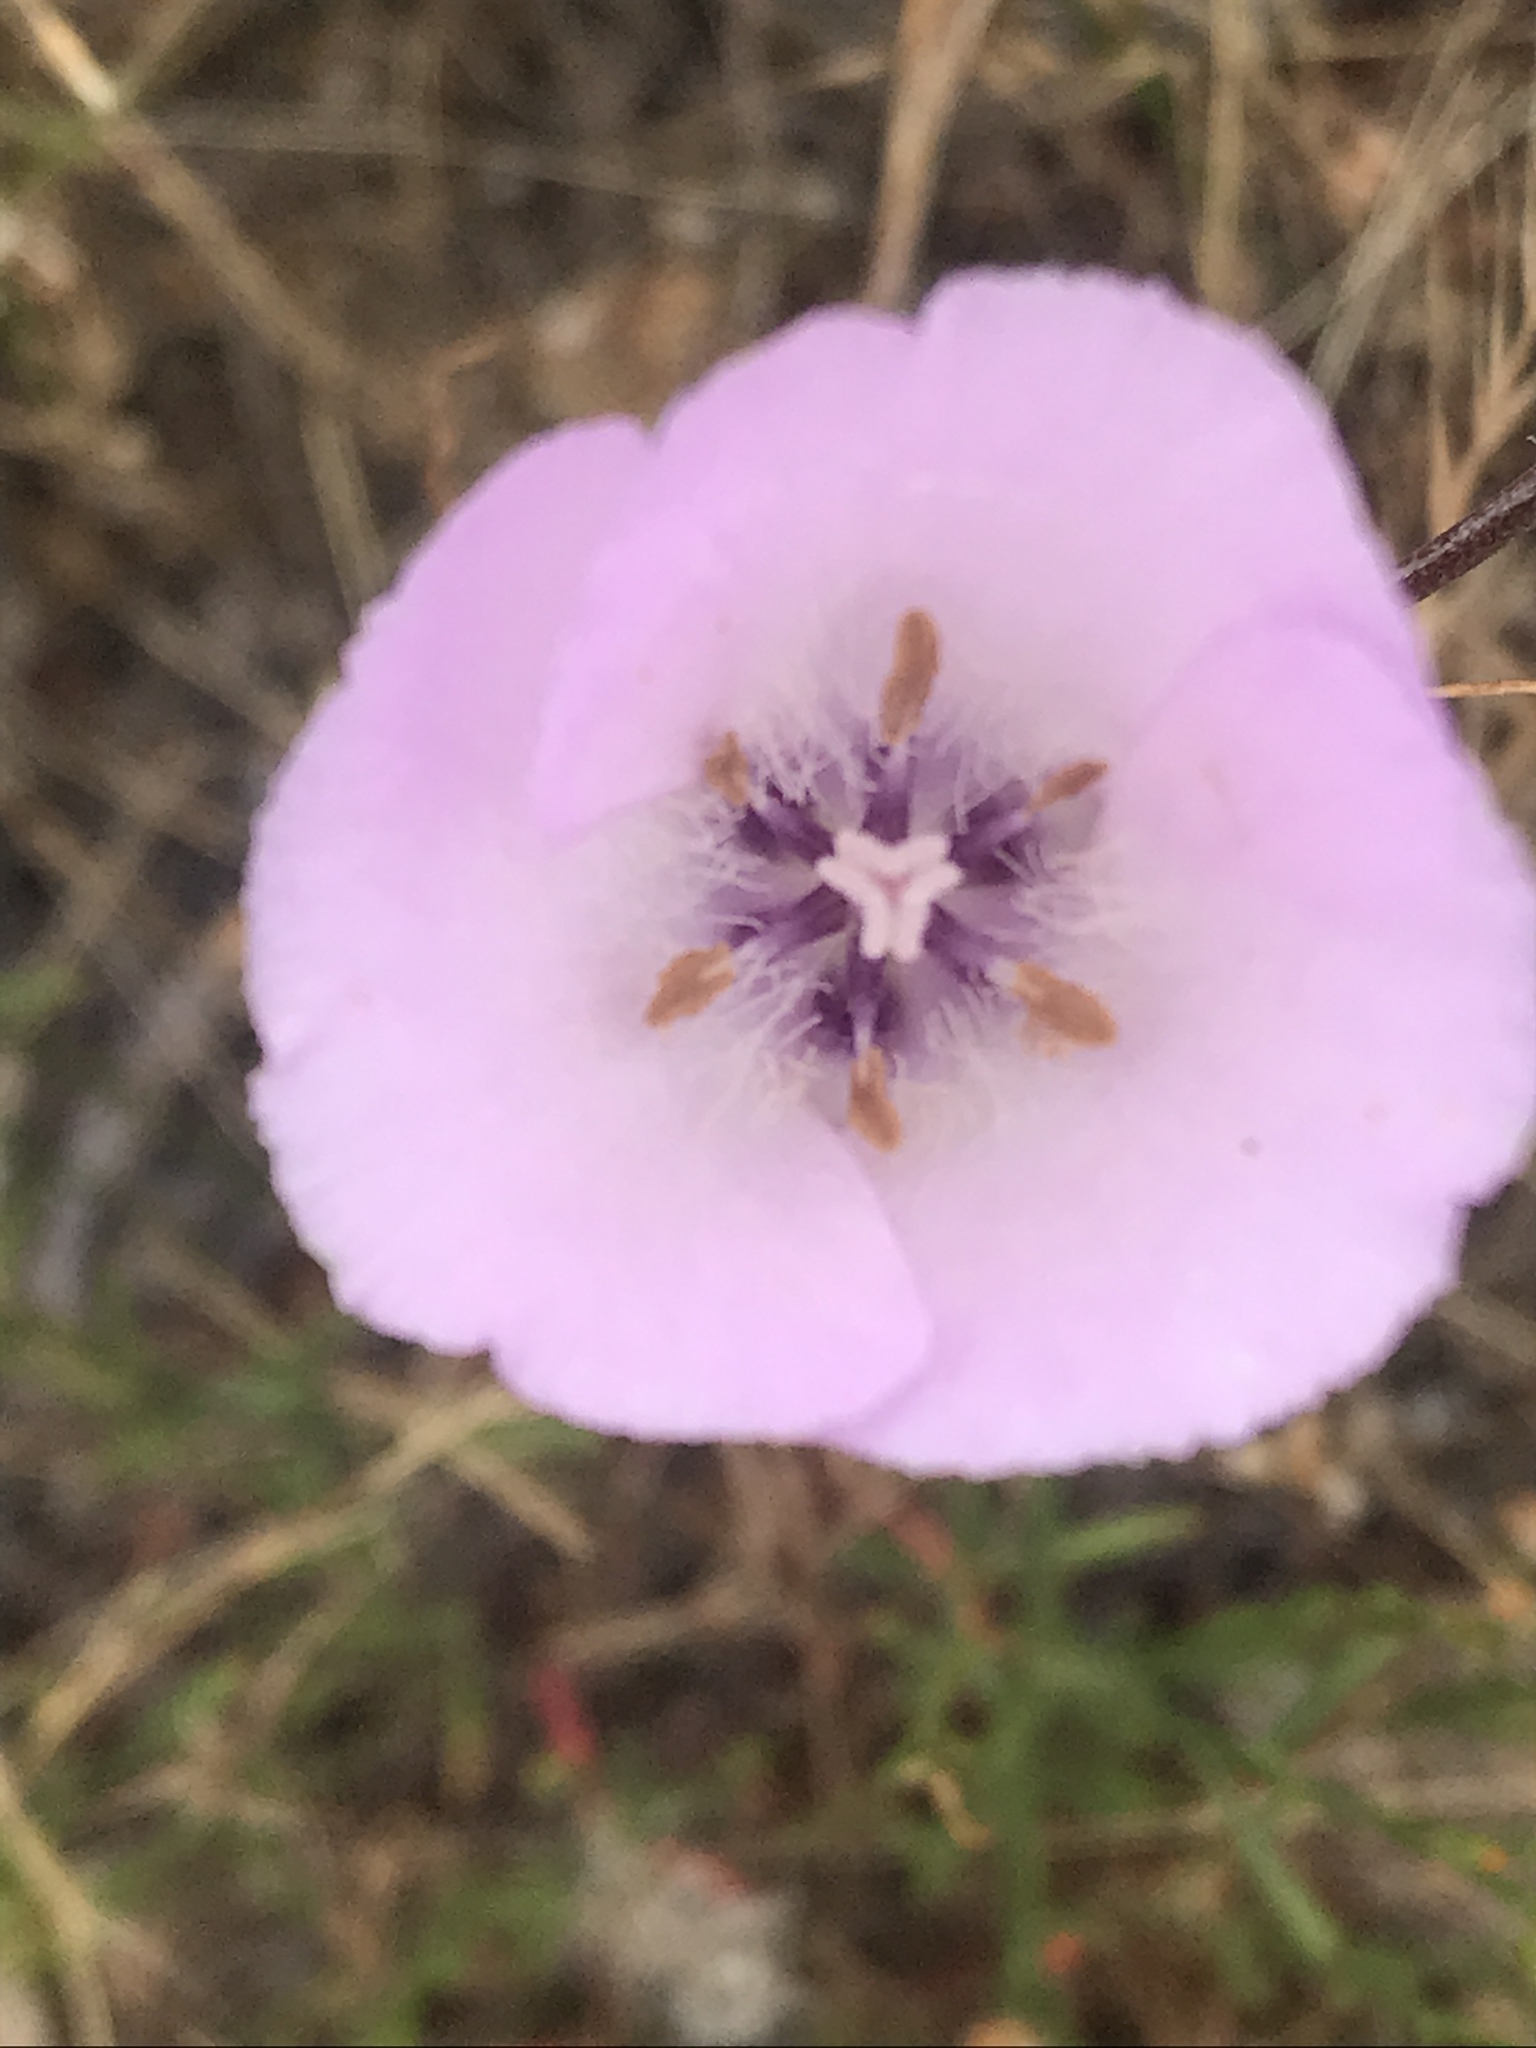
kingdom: Plantae
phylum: Tracheophyta
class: Liliopsida
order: Liliales
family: Liliaceae
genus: Calochortus
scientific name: Calochortus splendens
